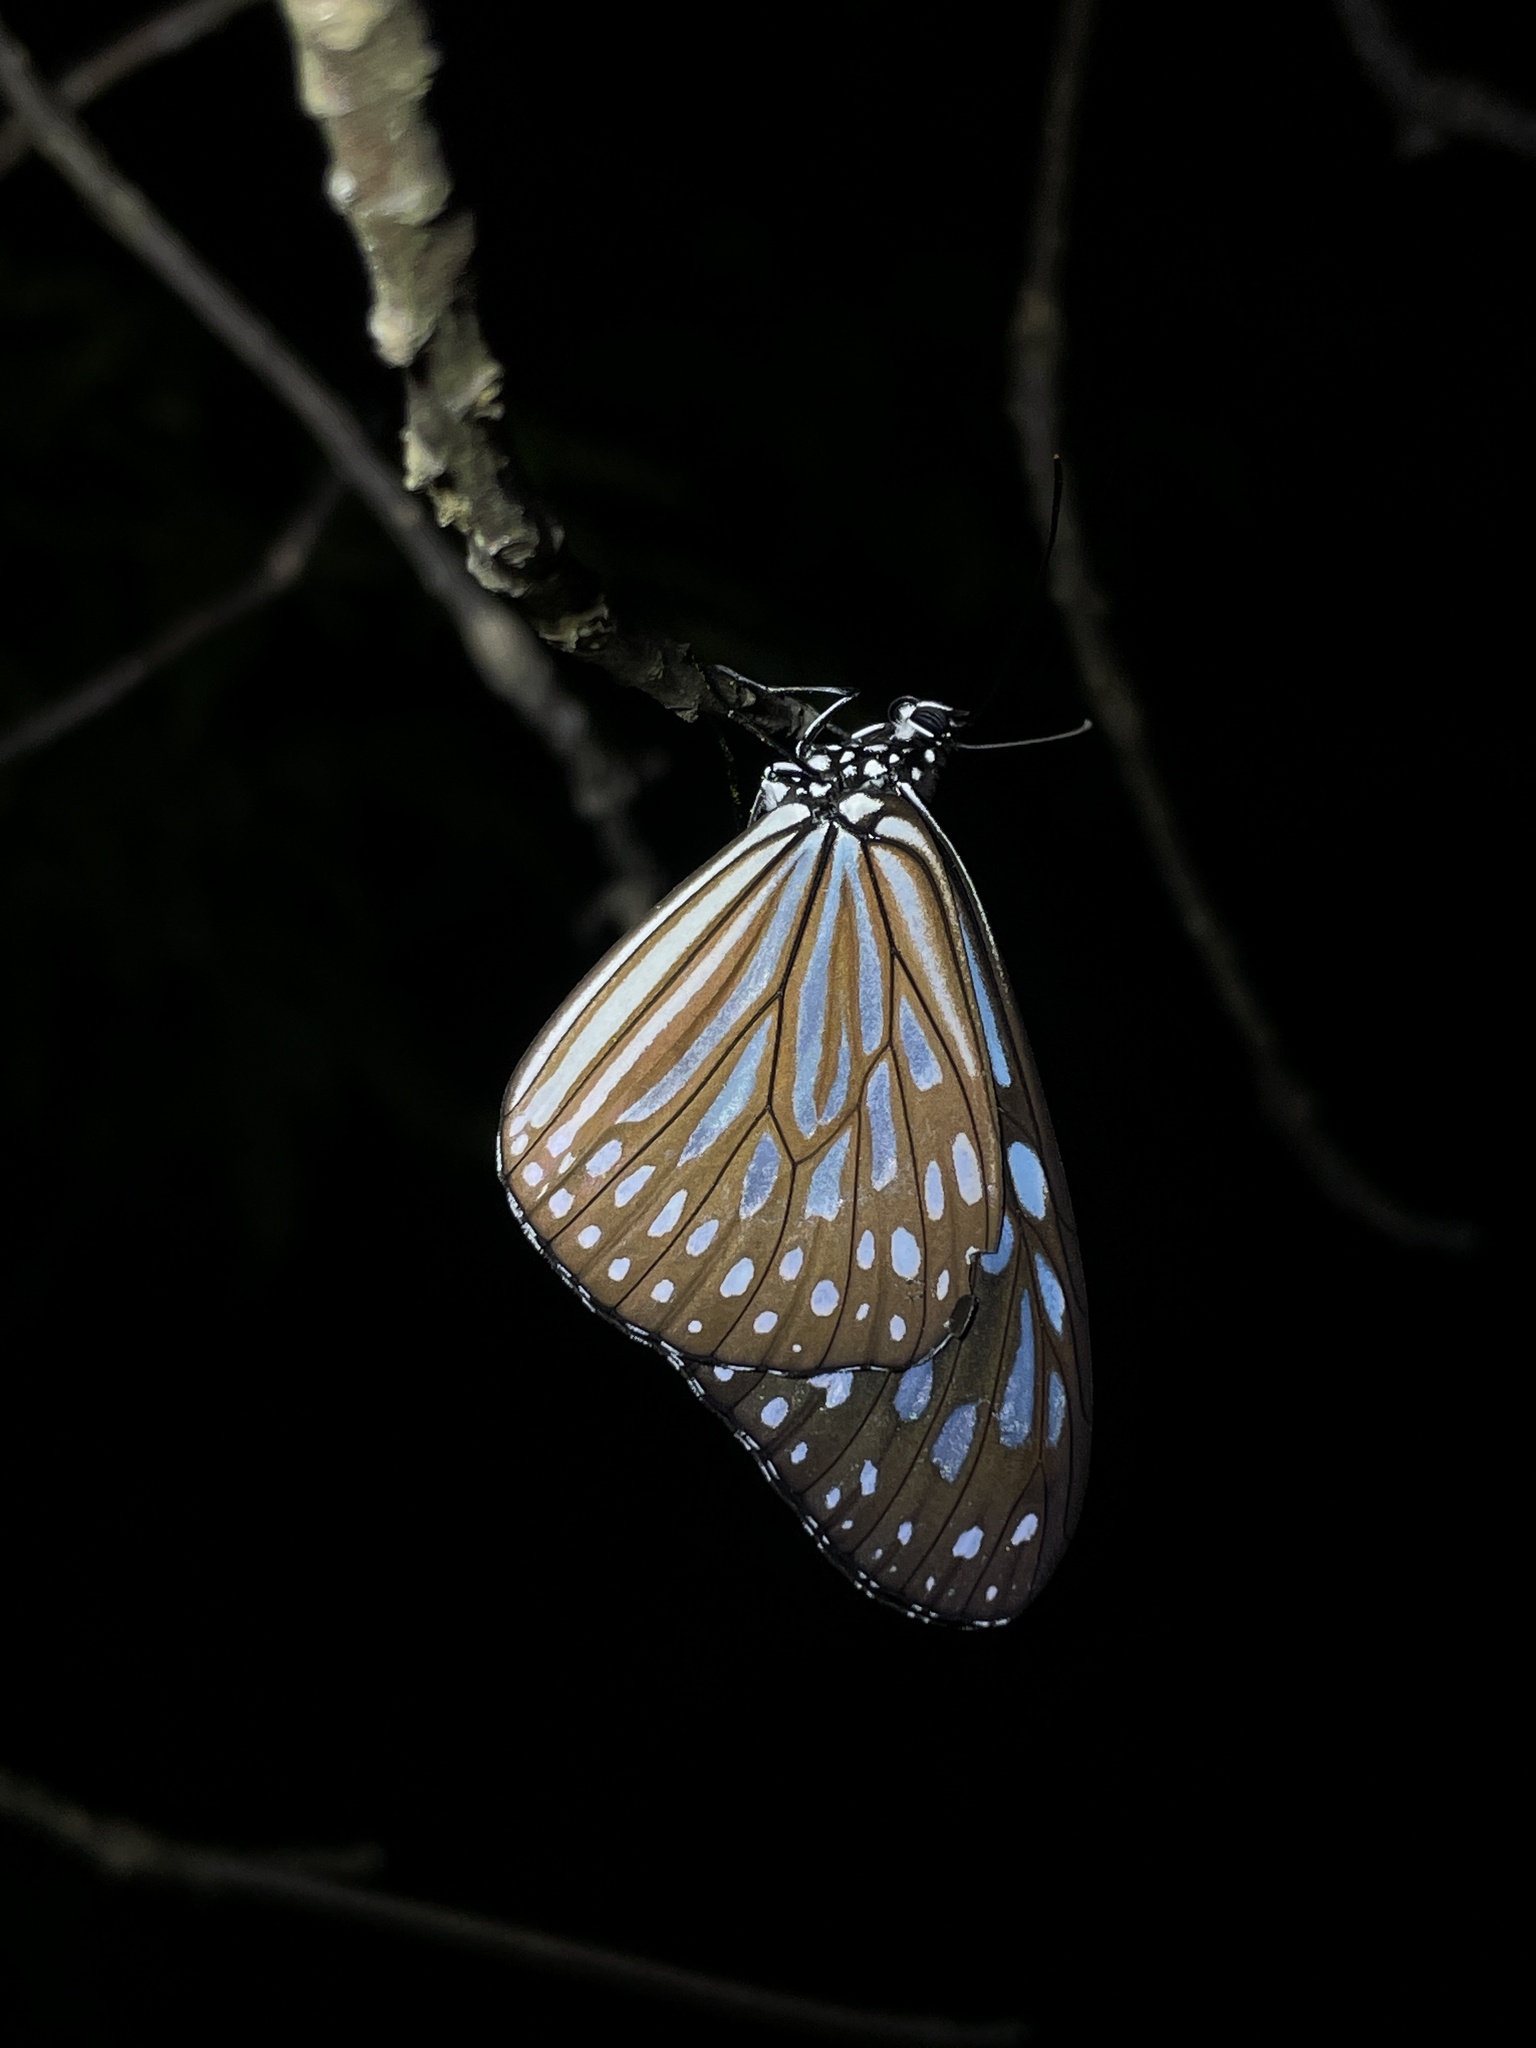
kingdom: Animalia
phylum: Arthropoda
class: Insecta
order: Lepidoptera
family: Nymphalidae
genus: Ideopsis
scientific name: Ideopsis similis
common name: Ceylon blue glassy tiger
